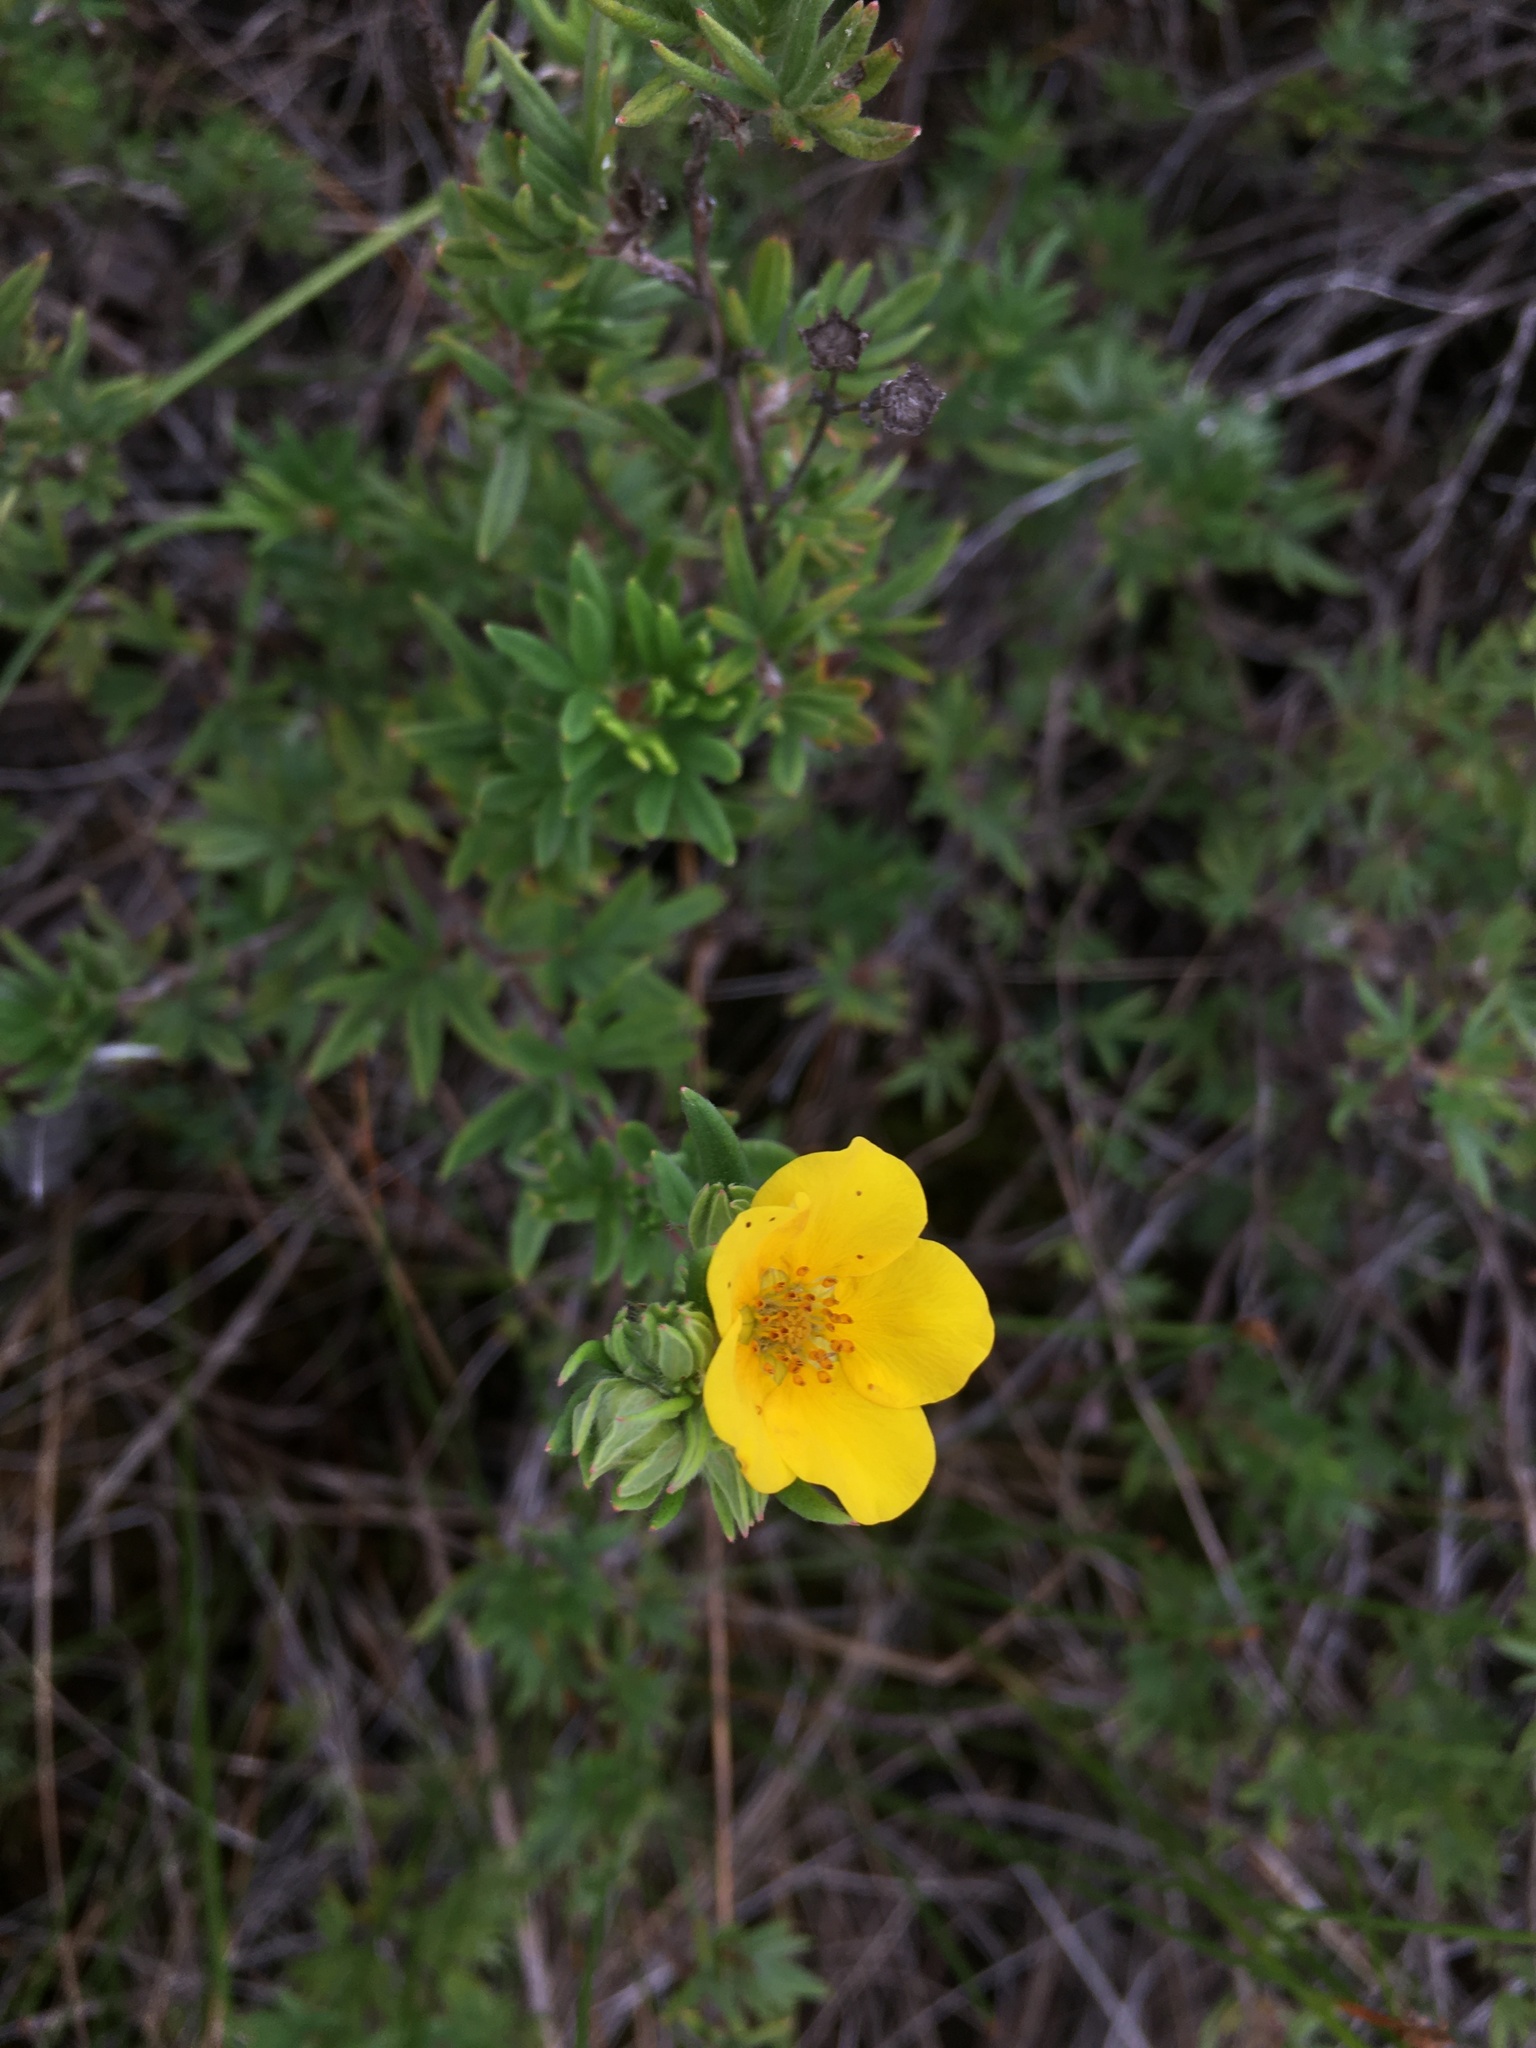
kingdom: Plantae
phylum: Tracheophyta
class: Magnoliopsida
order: Rosales
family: Rosaceae
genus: Dasiphora
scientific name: Dasiphora fruticosa
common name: Shrubby cinquefoil
